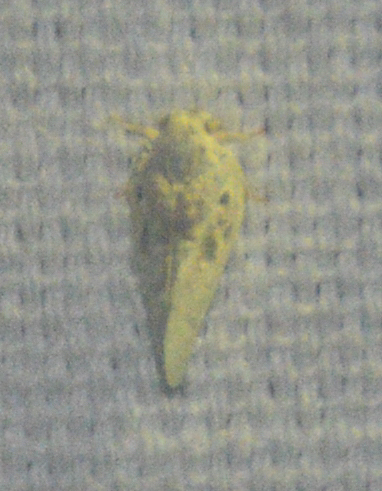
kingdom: Animalia
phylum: Arthropoda
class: Insecta
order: Hemiptera
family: Flatidae
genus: Metcalfa
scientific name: Metcalfa pruinosa
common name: Citrus flatid planthopper
